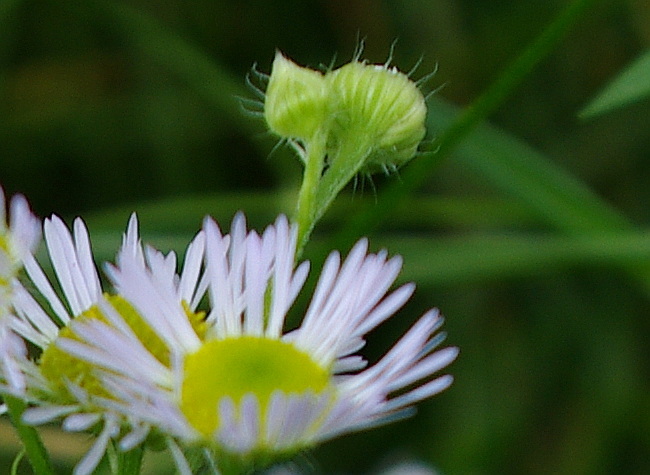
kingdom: Plantae
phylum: Tracheophyta
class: Magnoliopsida
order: Asterales
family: Asteraceae
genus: Erigeron
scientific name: Erigeron annuus
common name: Tall fleabane
